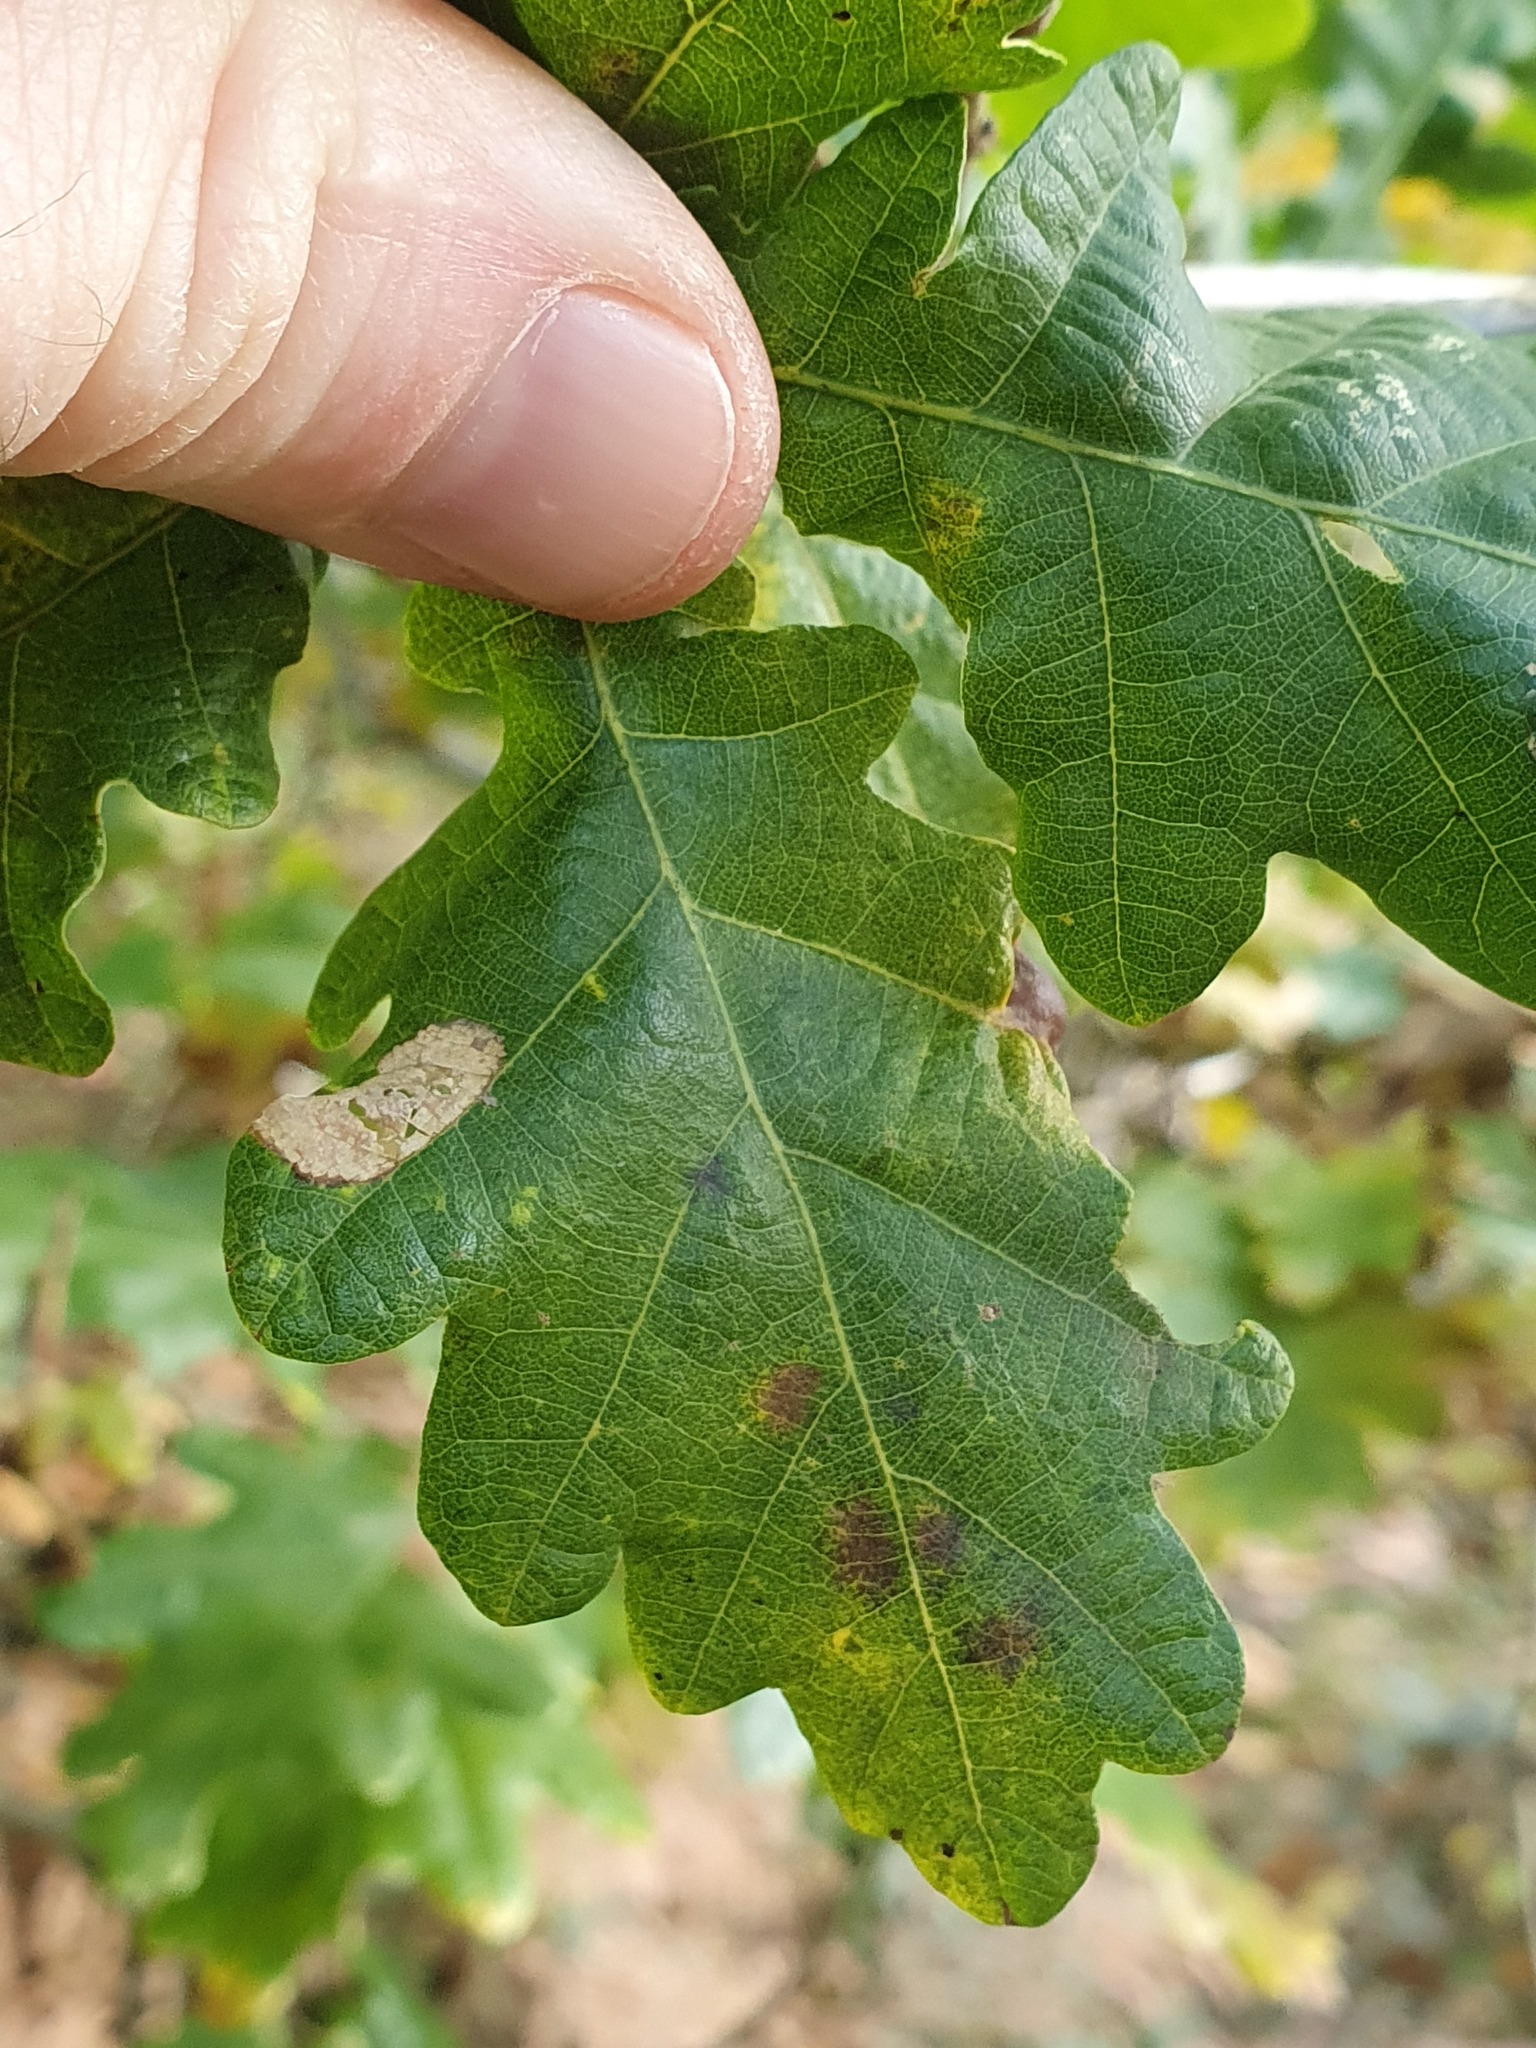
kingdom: Animalia
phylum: Arthropoda
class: Insecta
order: Hymenoptera
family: Cynipidae
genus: Andricus
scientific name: Andricus curvator
